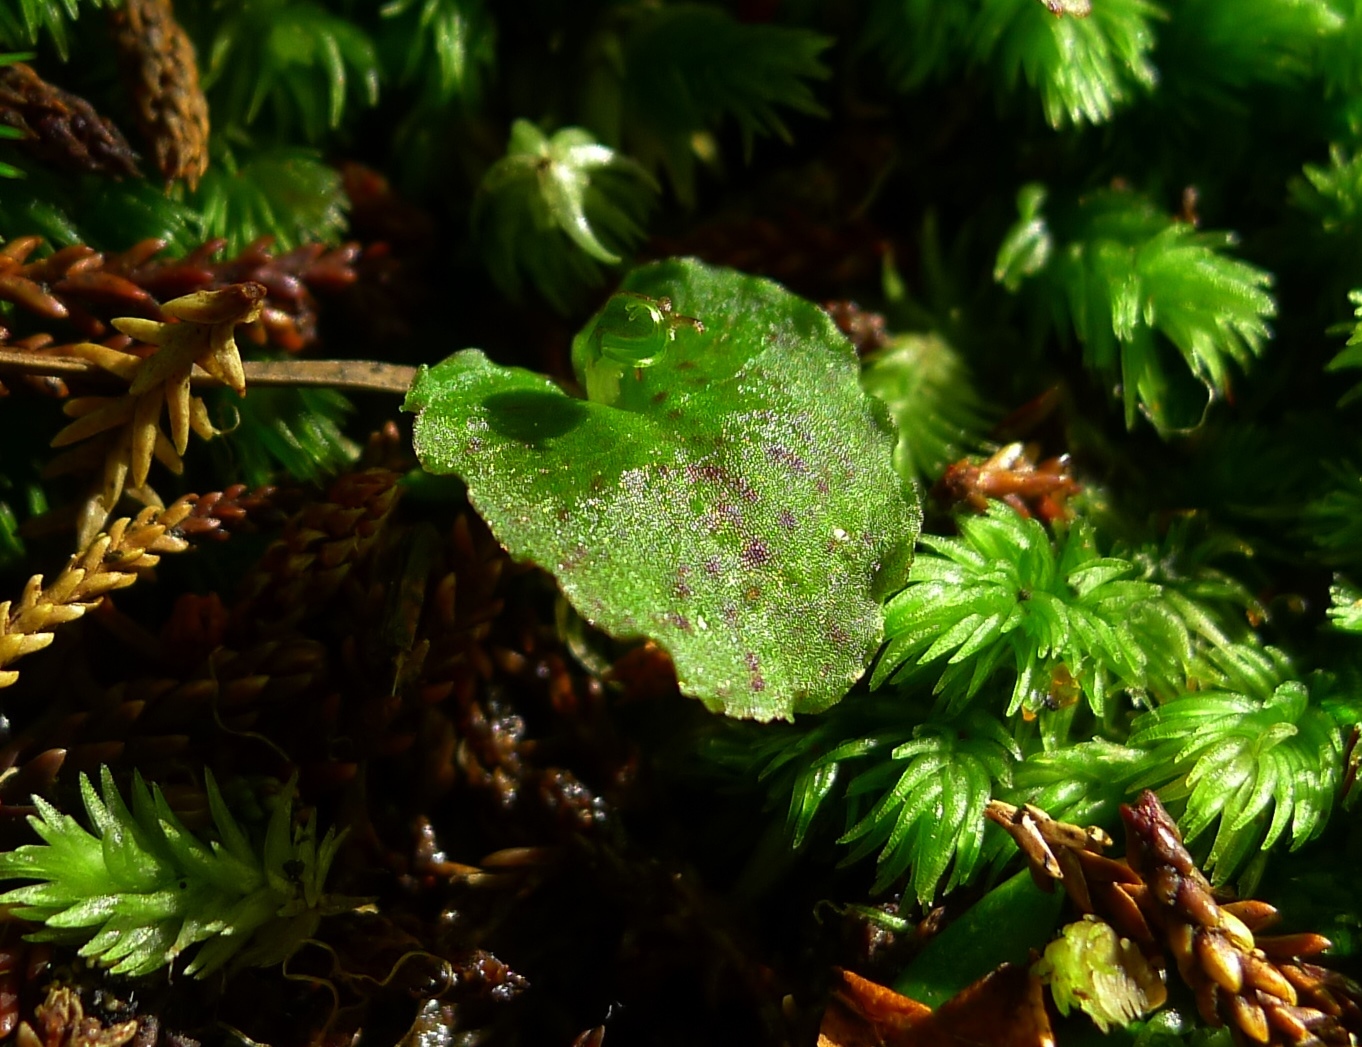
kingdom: Plantae
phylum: Tracheophyta
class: Liliopsida
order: Asparagales
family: Orchidaceae
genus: Corybas
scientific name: Corybas oblongus
